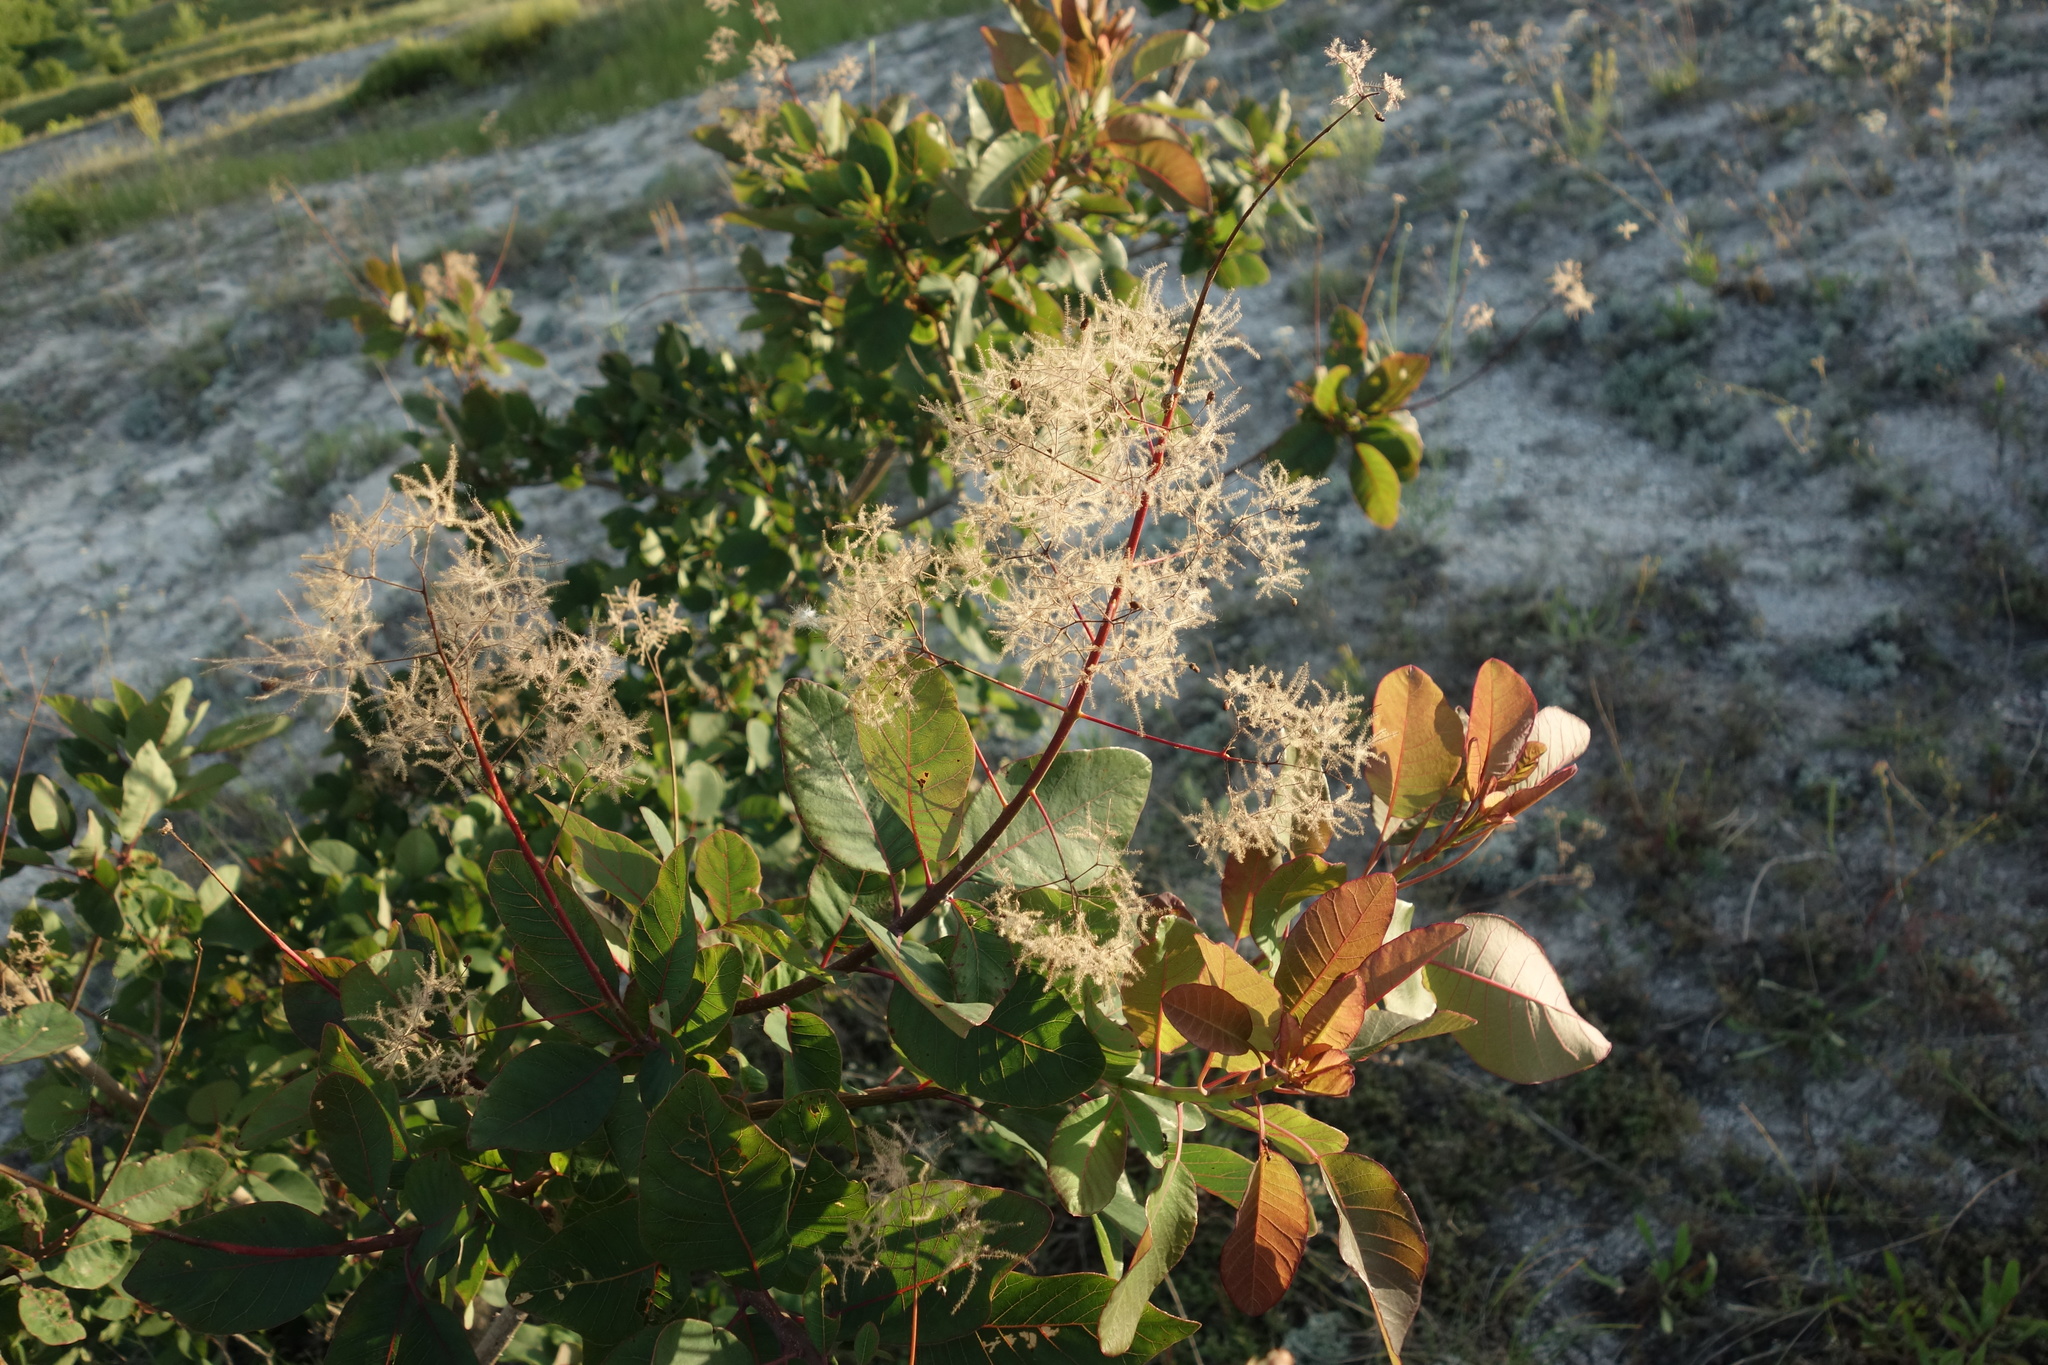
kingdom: Plantae
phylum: Tracheophyta
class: Magnoliopsida
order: Sapindales
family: Anacardiaceae
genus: Cotinus
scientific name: Cotinus coggygria
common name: Smoke-tree
